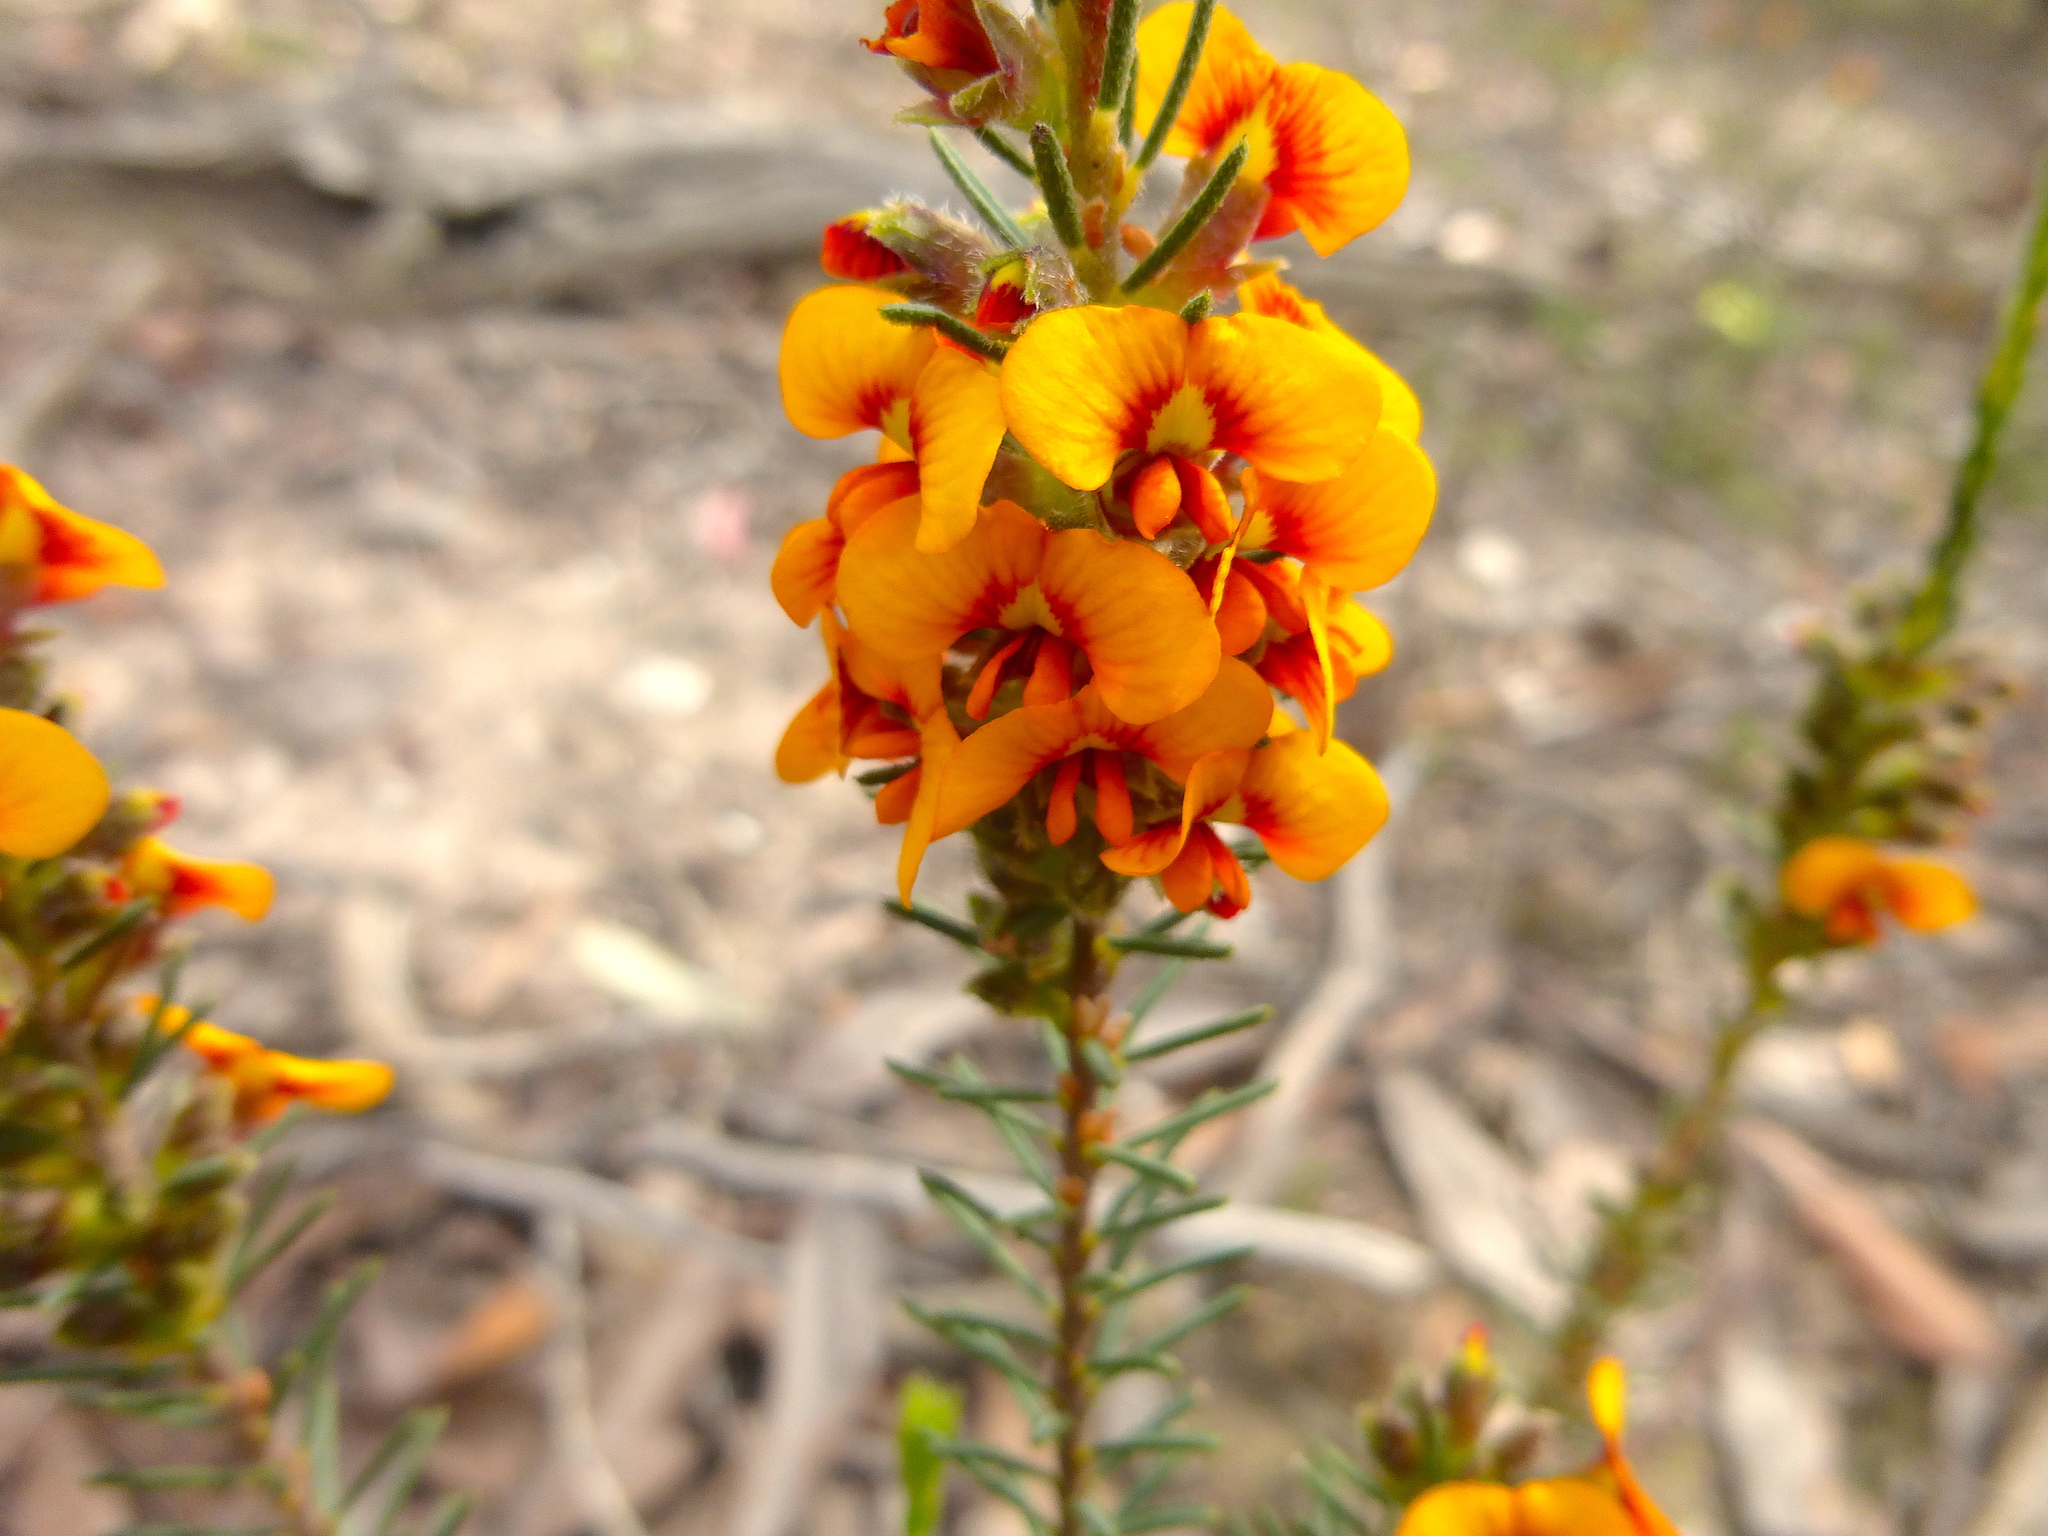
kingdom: Plantae
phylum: Tracheophyta
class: Magnoliopsida
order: Fabales
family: Fabaceae
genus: Dillwynia
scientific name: Dillwynia sericea
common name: Showy parrot-pea
